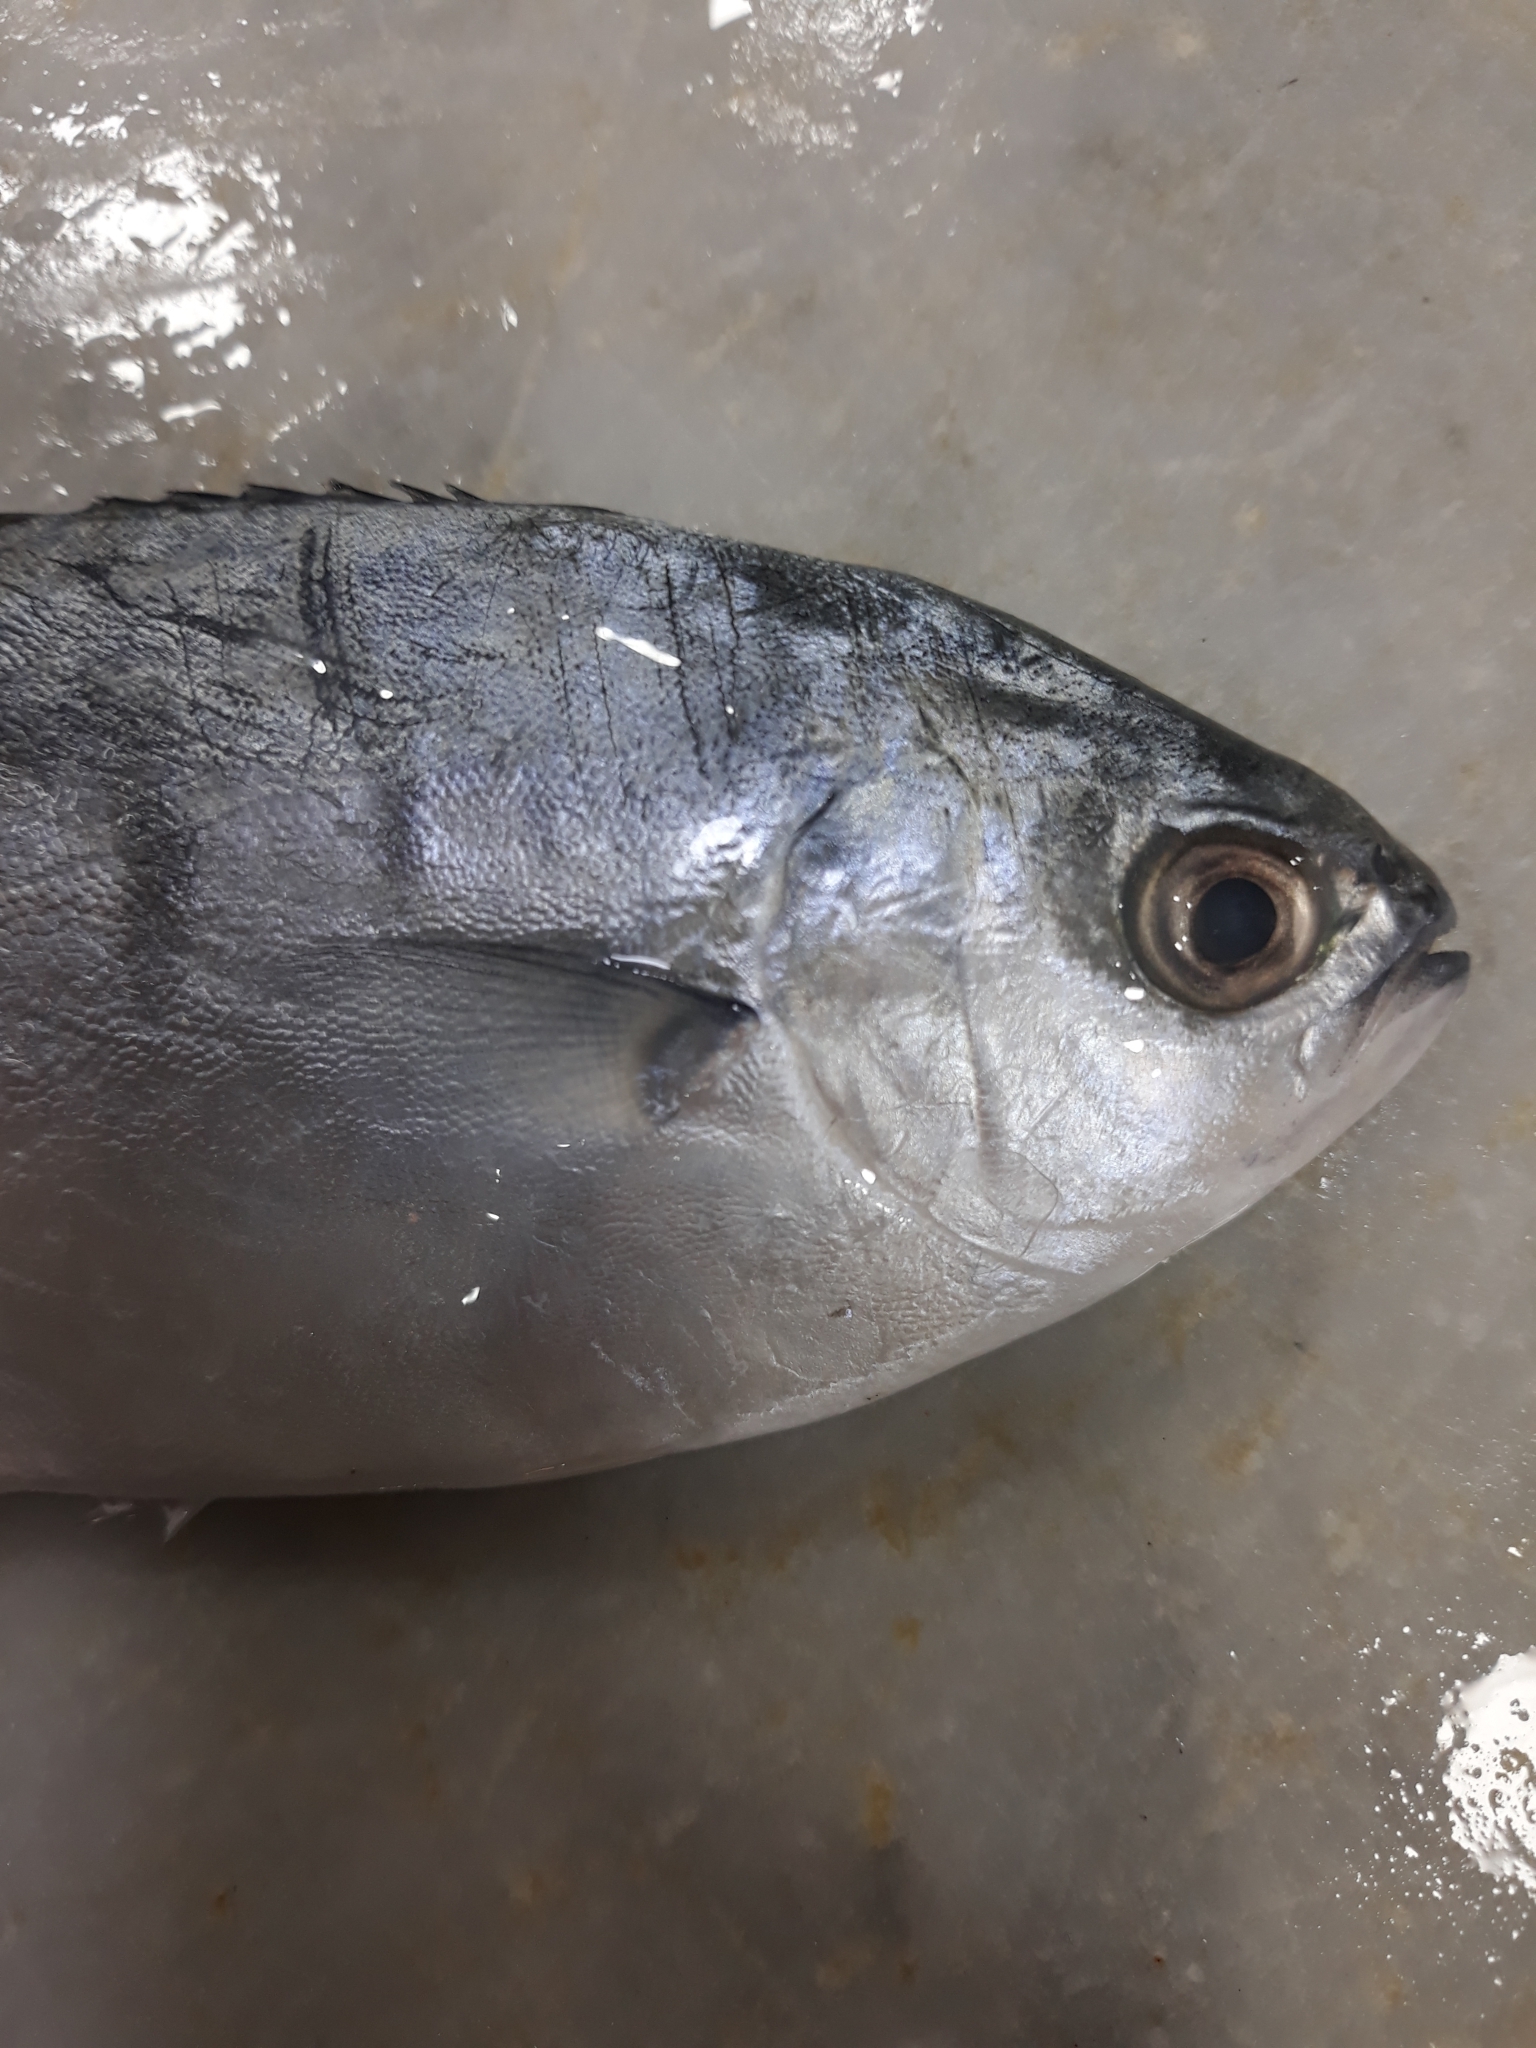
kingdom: Animalia
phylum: Chordata
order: Perciformes
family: Carangidae
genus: Trachinotus
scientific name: Trachinotus ovatus
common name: Pompano
